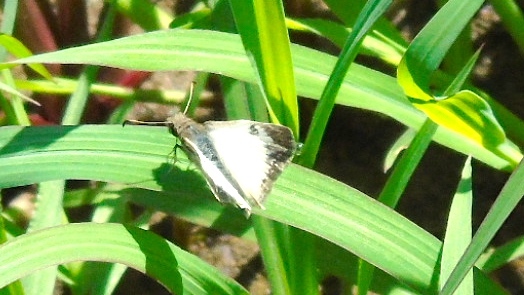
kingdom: Animalia
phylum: Arthropoda
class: Insecta
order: Lepidoptera
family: Hesperiidae
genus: Heliopetes
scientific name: Heliopetes macaira
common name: Turk's-cap white-skipper
